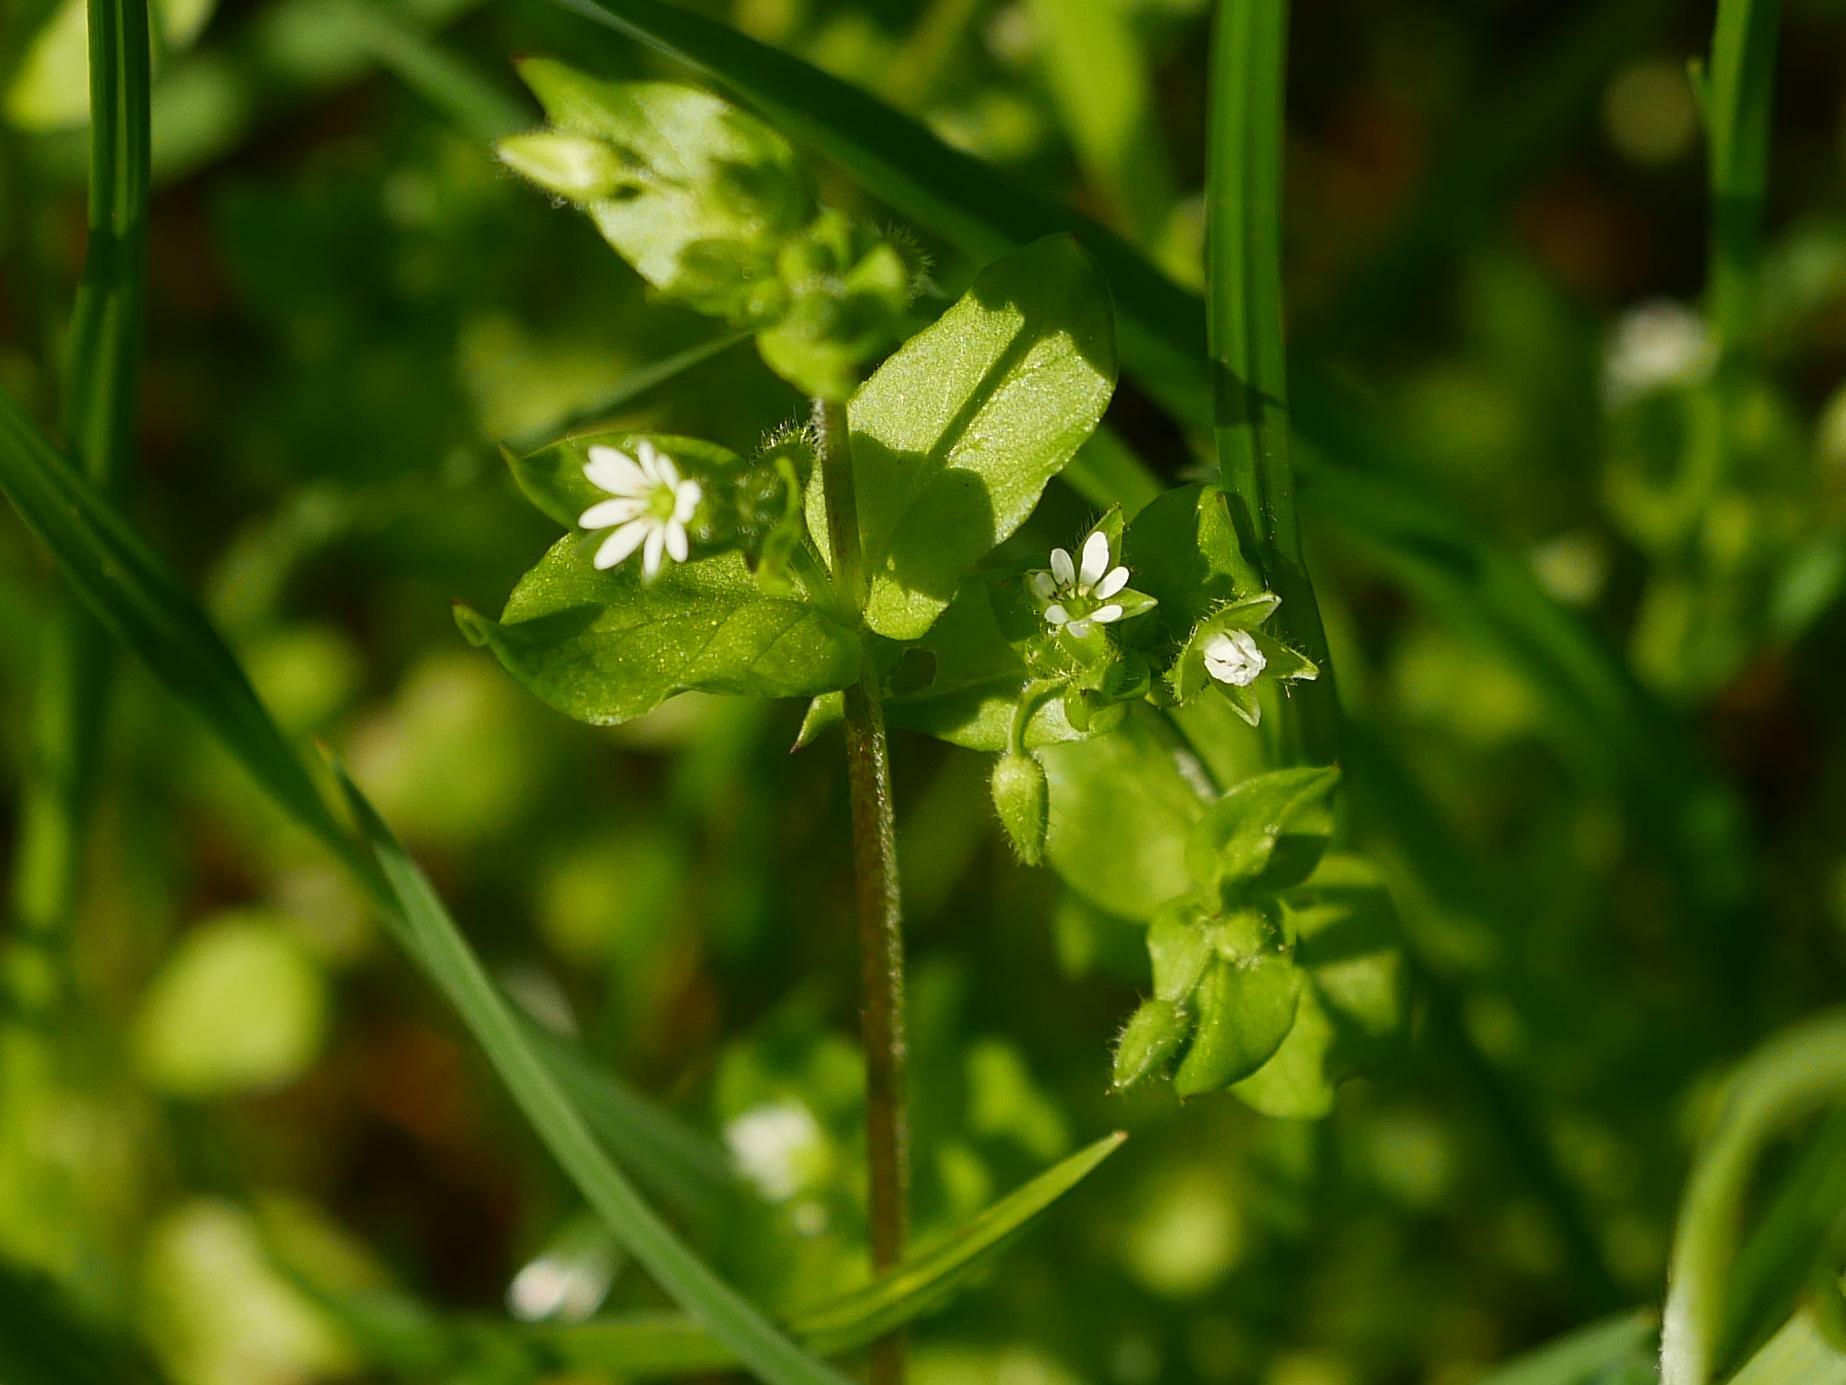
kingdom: Plantae
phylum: Tracheophyta
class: Magnoliopsida
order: Caryophyllales
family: Caryophyllaceae
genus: Stellaria
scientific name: Stellaria media
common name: Common chickweed
